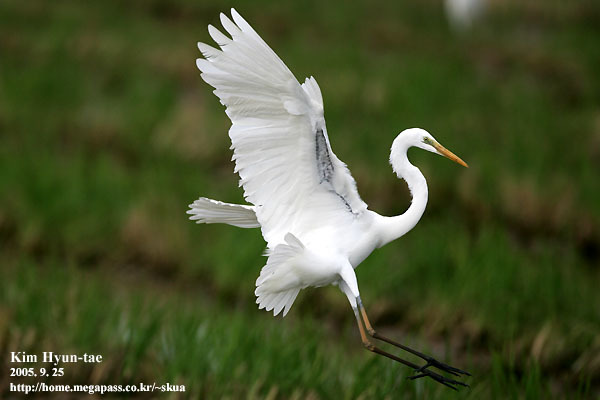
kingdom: Animalia
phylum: Chordata
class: Aves
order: Pelecaniformes
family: Ardeidae
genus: Ardea
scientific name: Ardea alba
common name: Great egret
